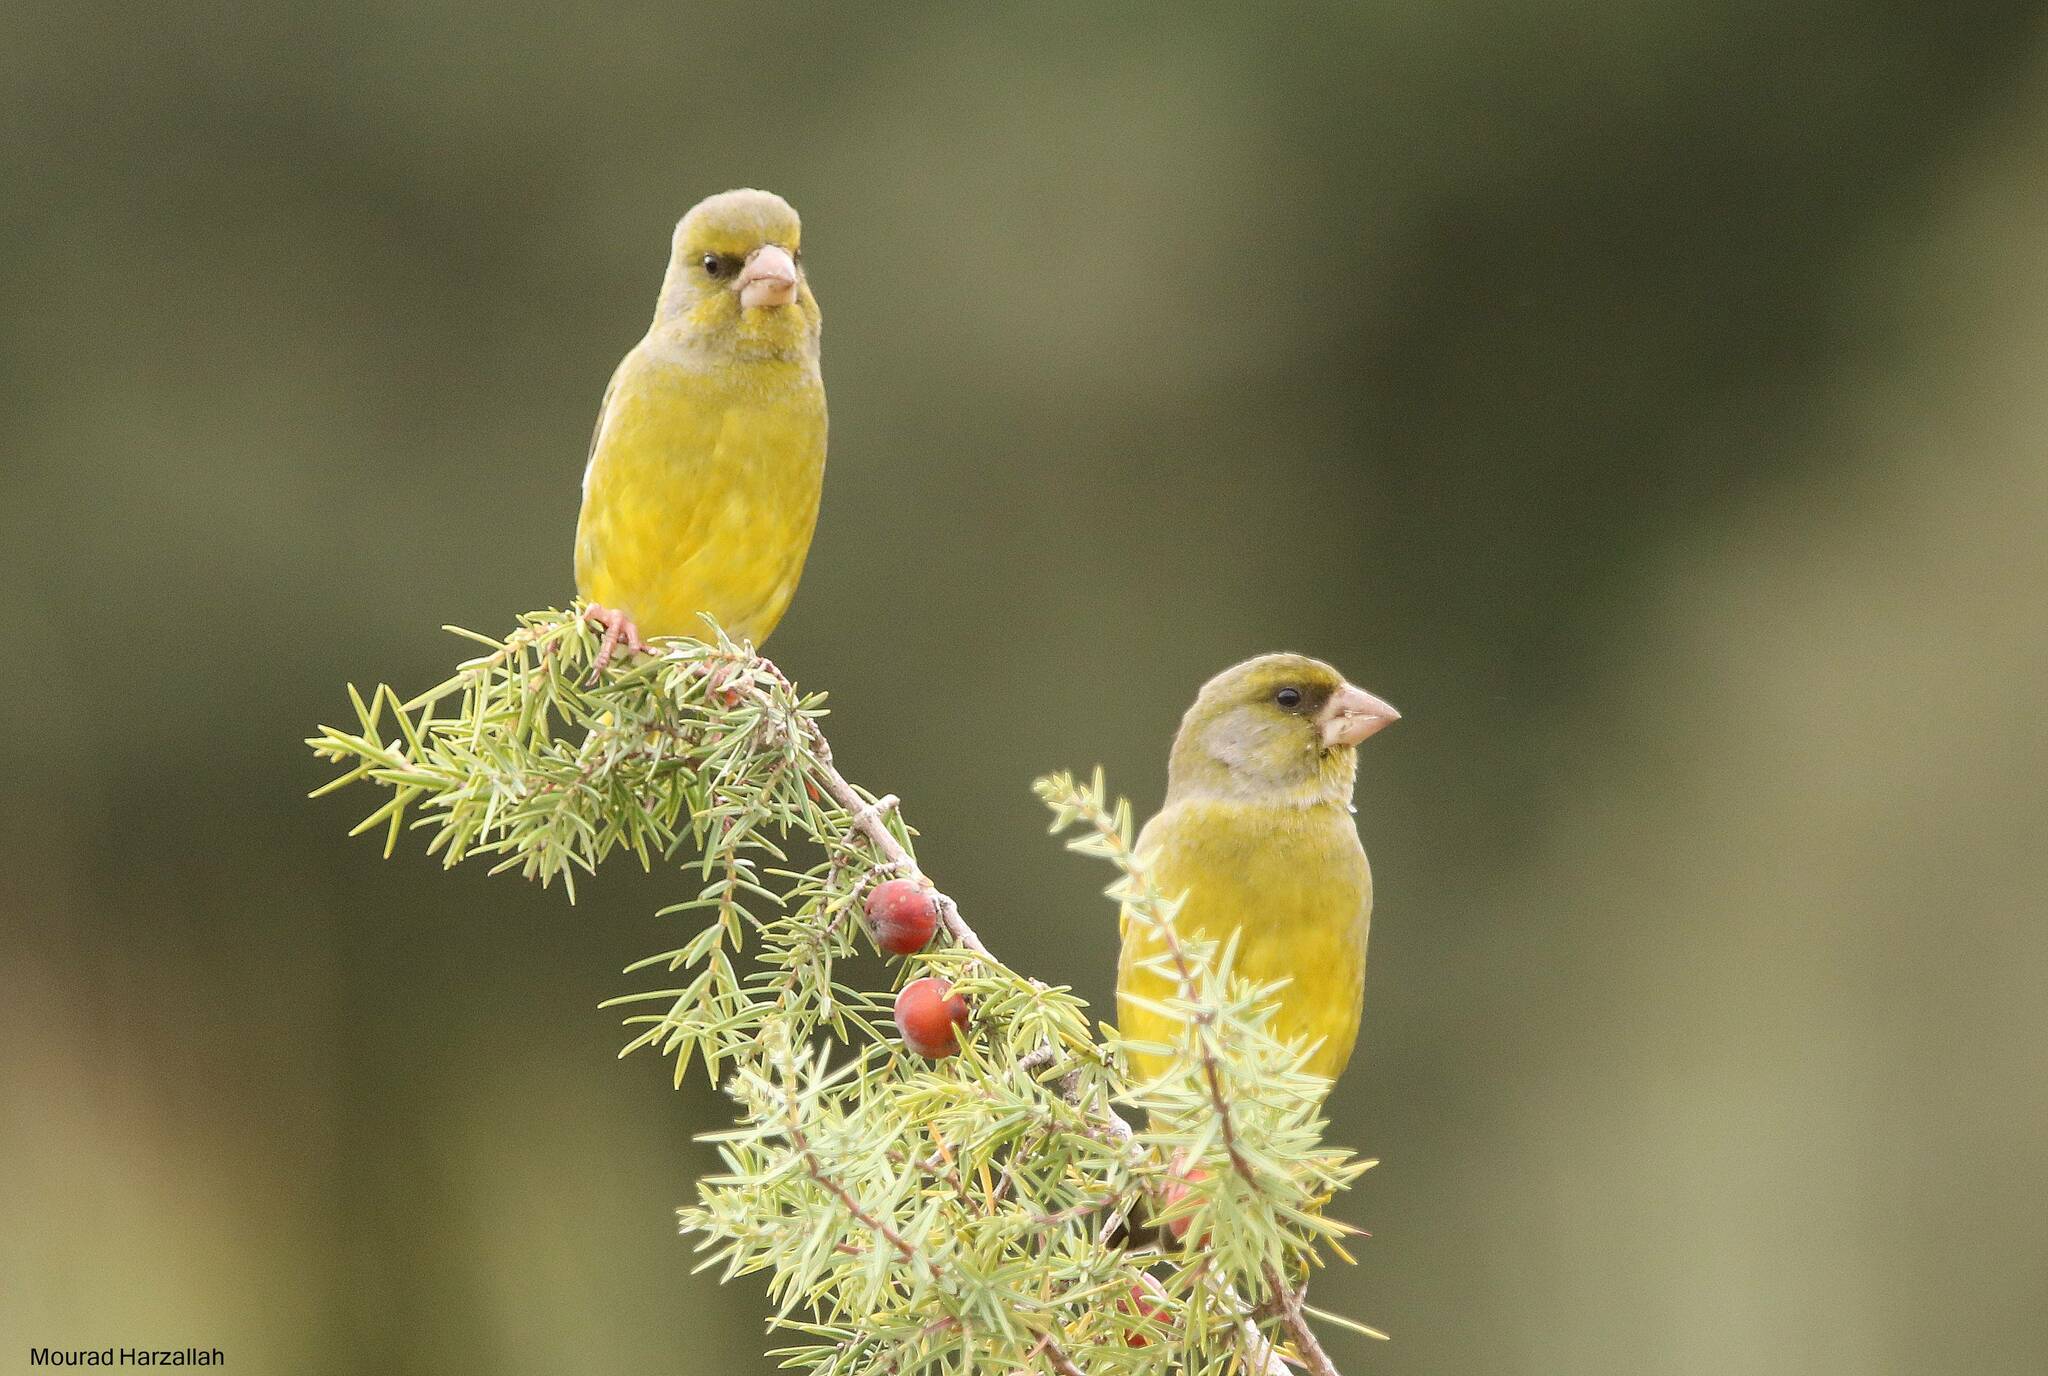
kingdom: Plantae
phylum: Tracheophyta
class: Liliopsida
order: Poales
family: Poaceae
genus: Chloris
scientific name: Chloris chloris
